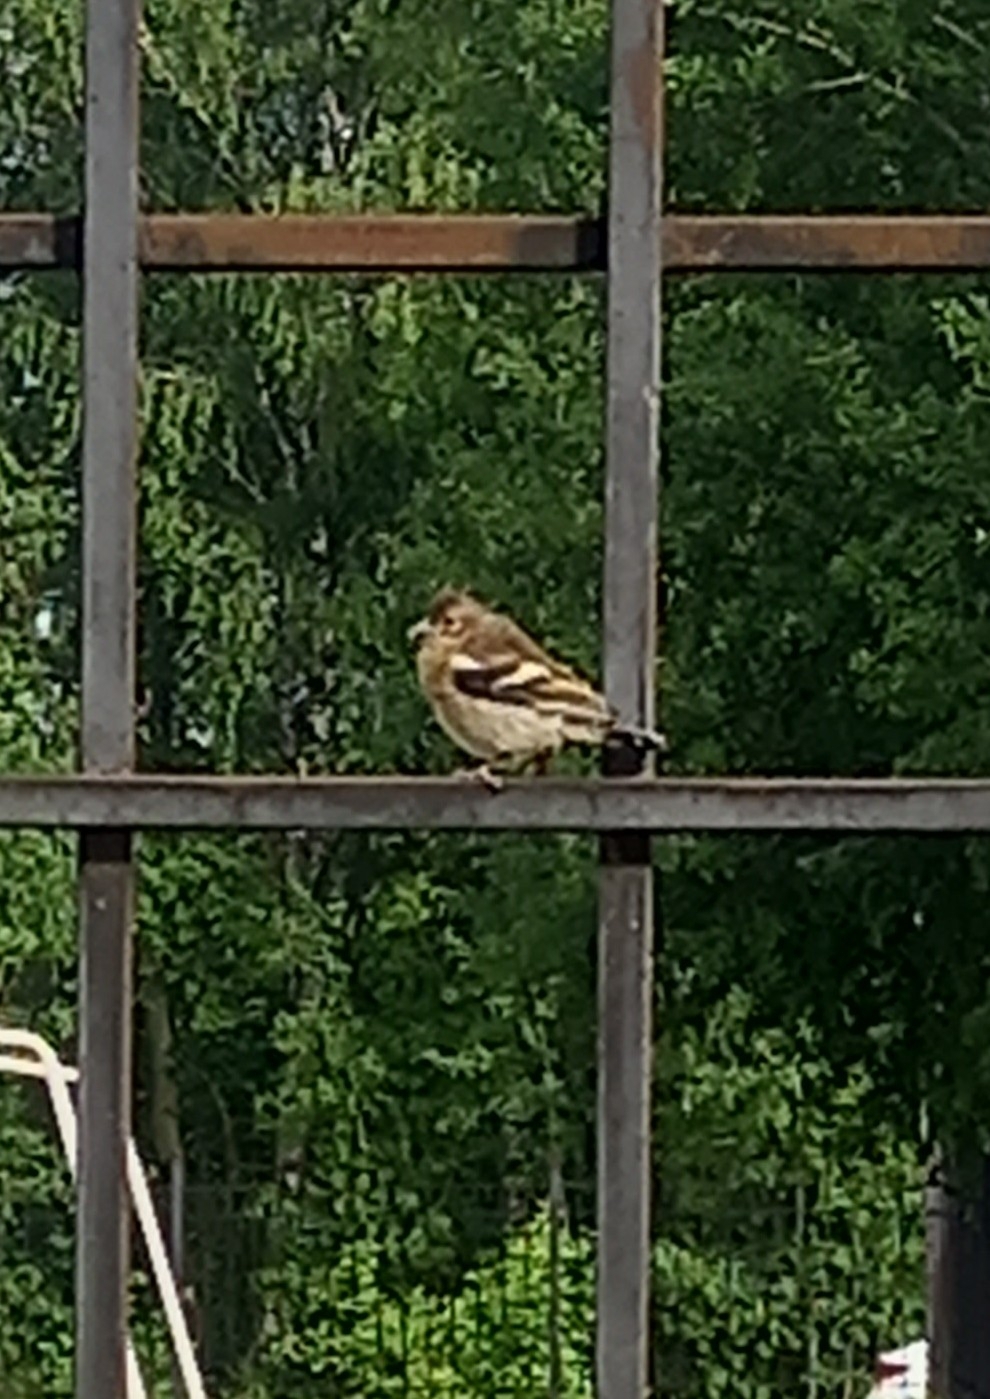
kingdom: Animalia
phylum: Chordata
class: Aves
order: Passeriformes
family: Fringillidae
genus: Fringilla
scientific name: Fringilla coelebs
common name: Common chaffinch
